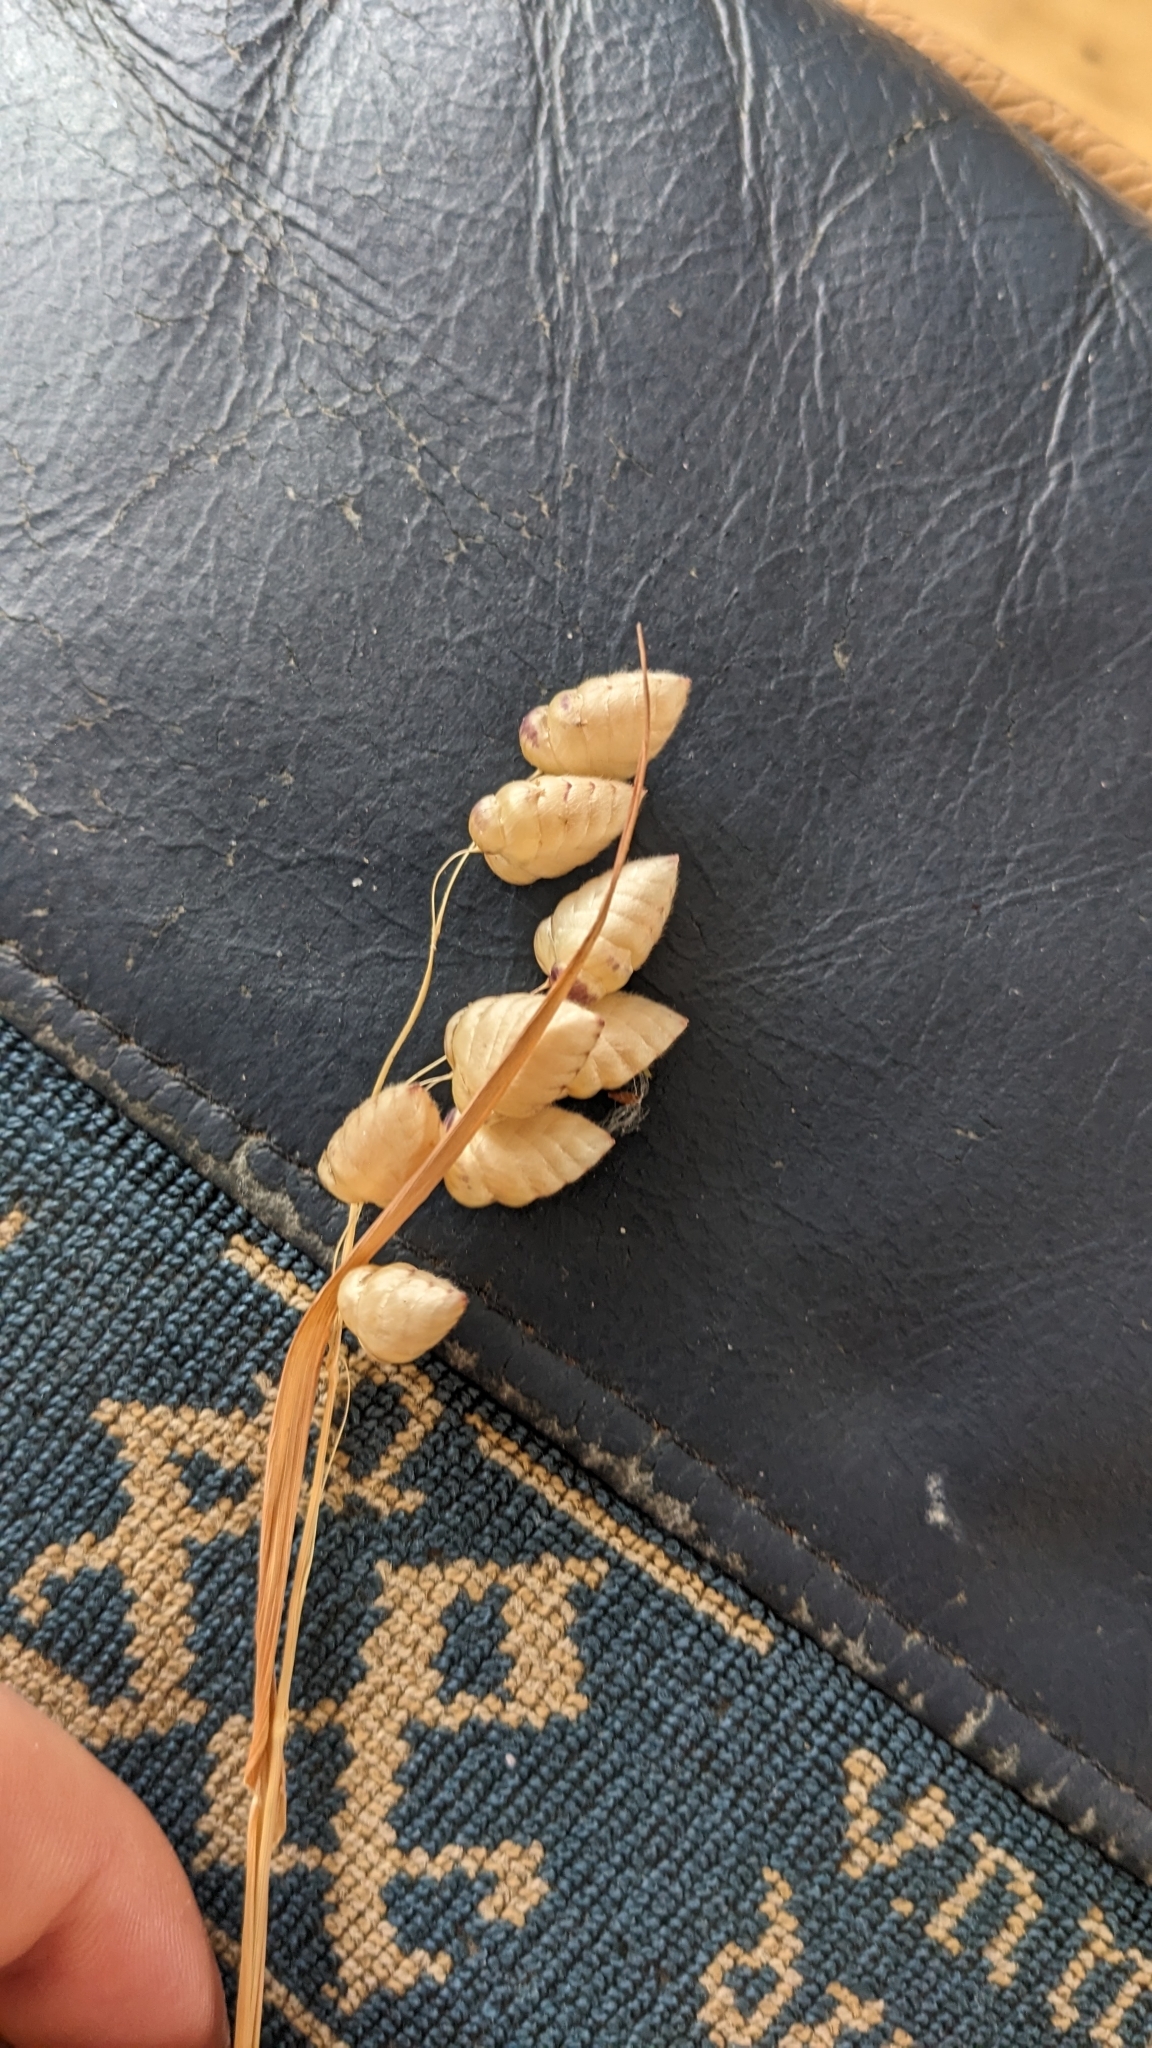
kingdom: Plantae
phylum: Tracheophyta
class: Liliopsida
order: Poales
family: Poaceae
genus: Briza
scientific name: Briza maxima
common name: Big quakinggrass
